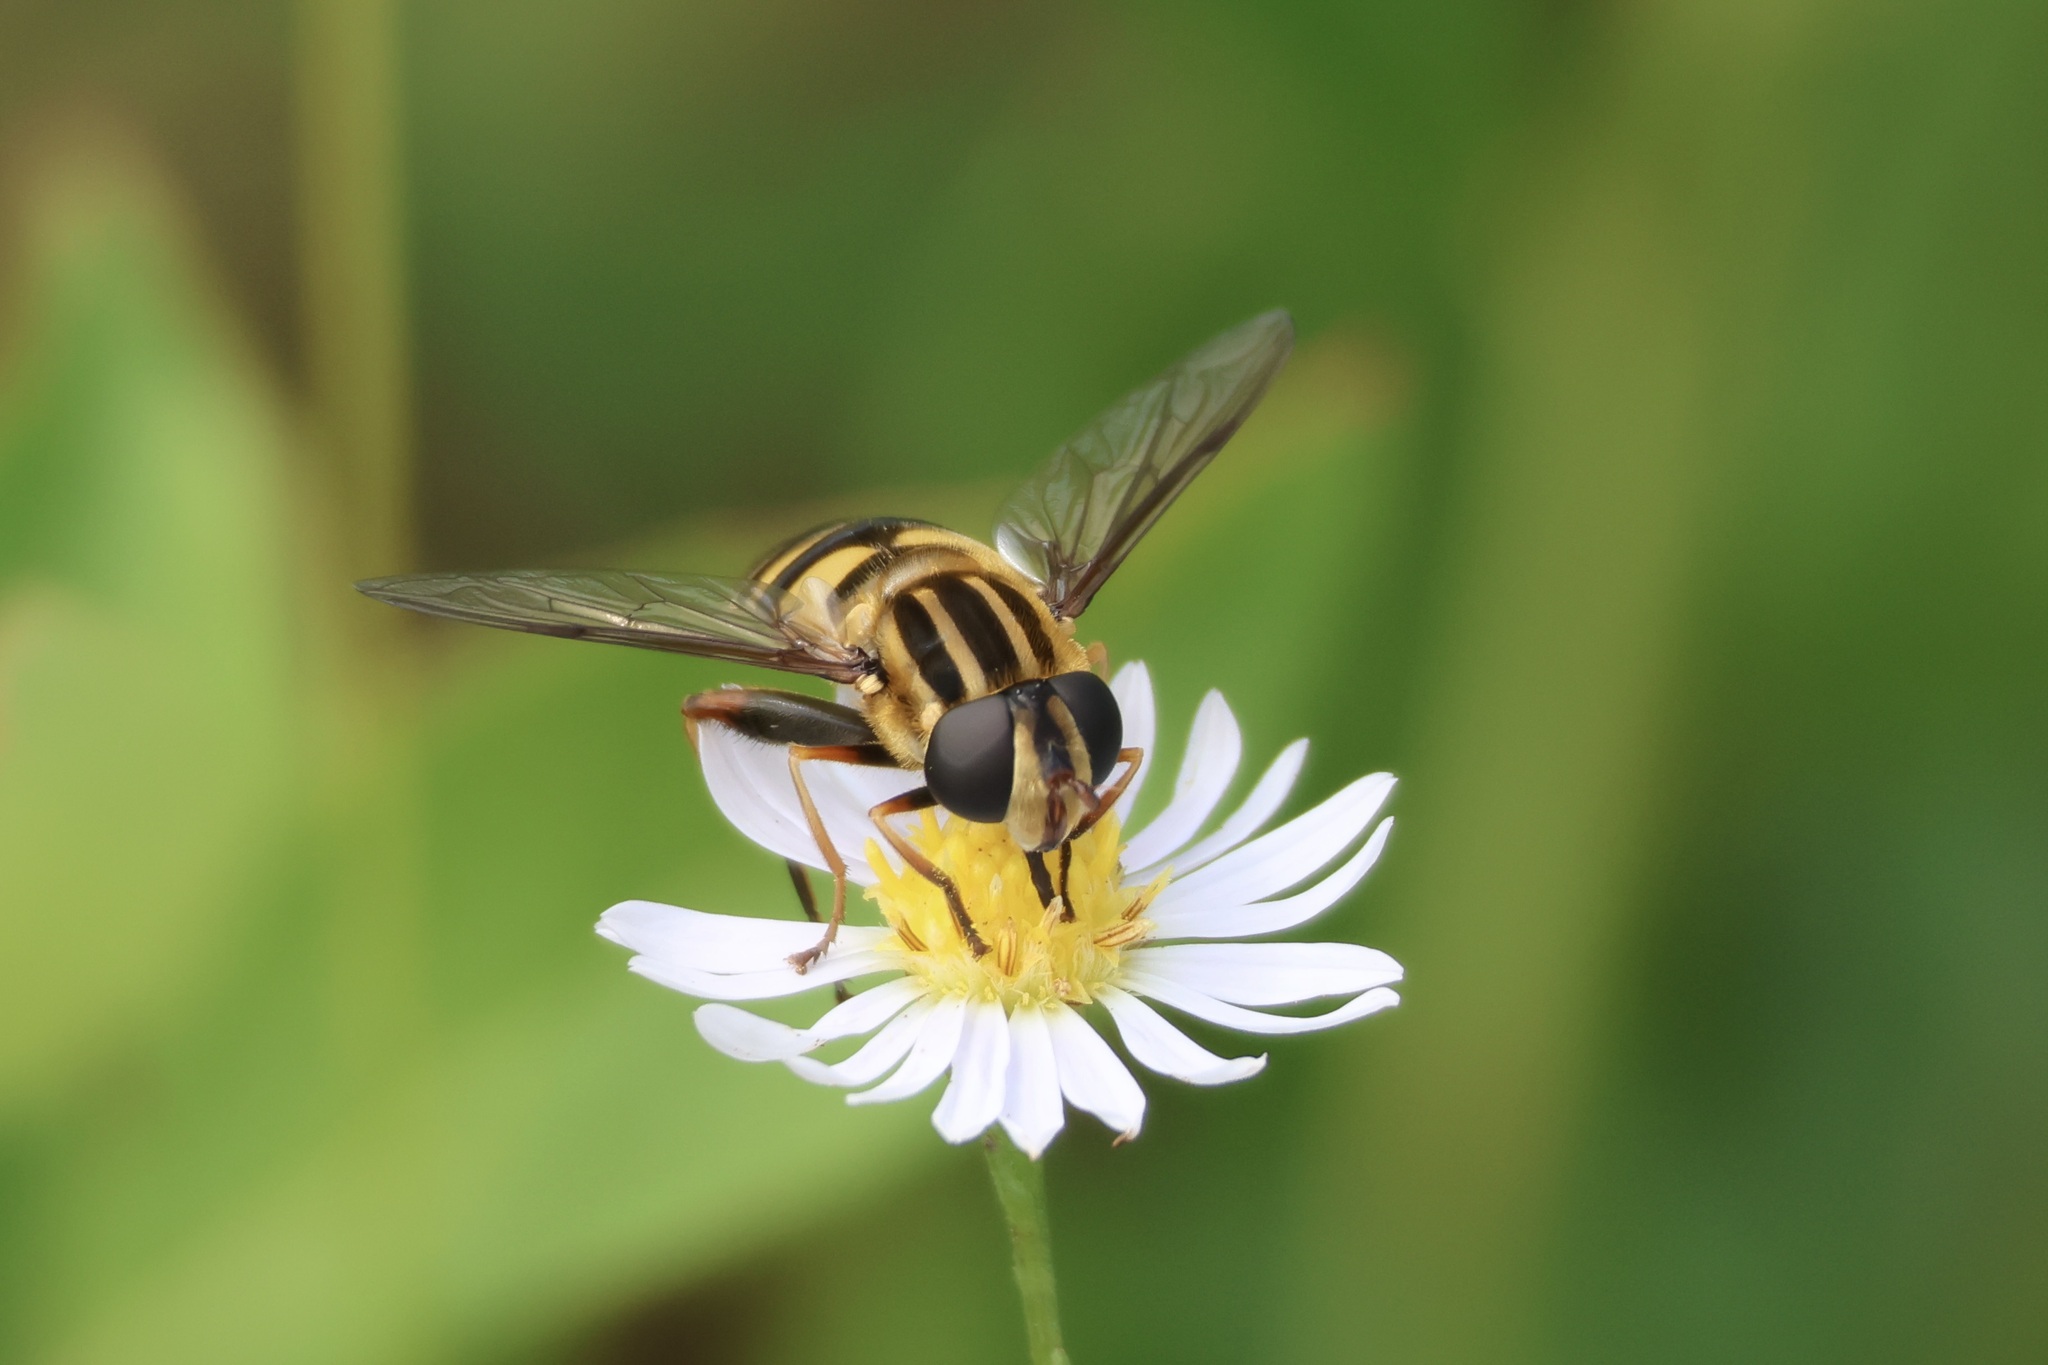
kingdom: Animalia
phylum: Arthropoda
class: Insecta
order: Diptera
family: Syrphidae
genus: Helophilus
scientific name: Helophilus fasciatus
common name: Narrow-headed marsh fly
